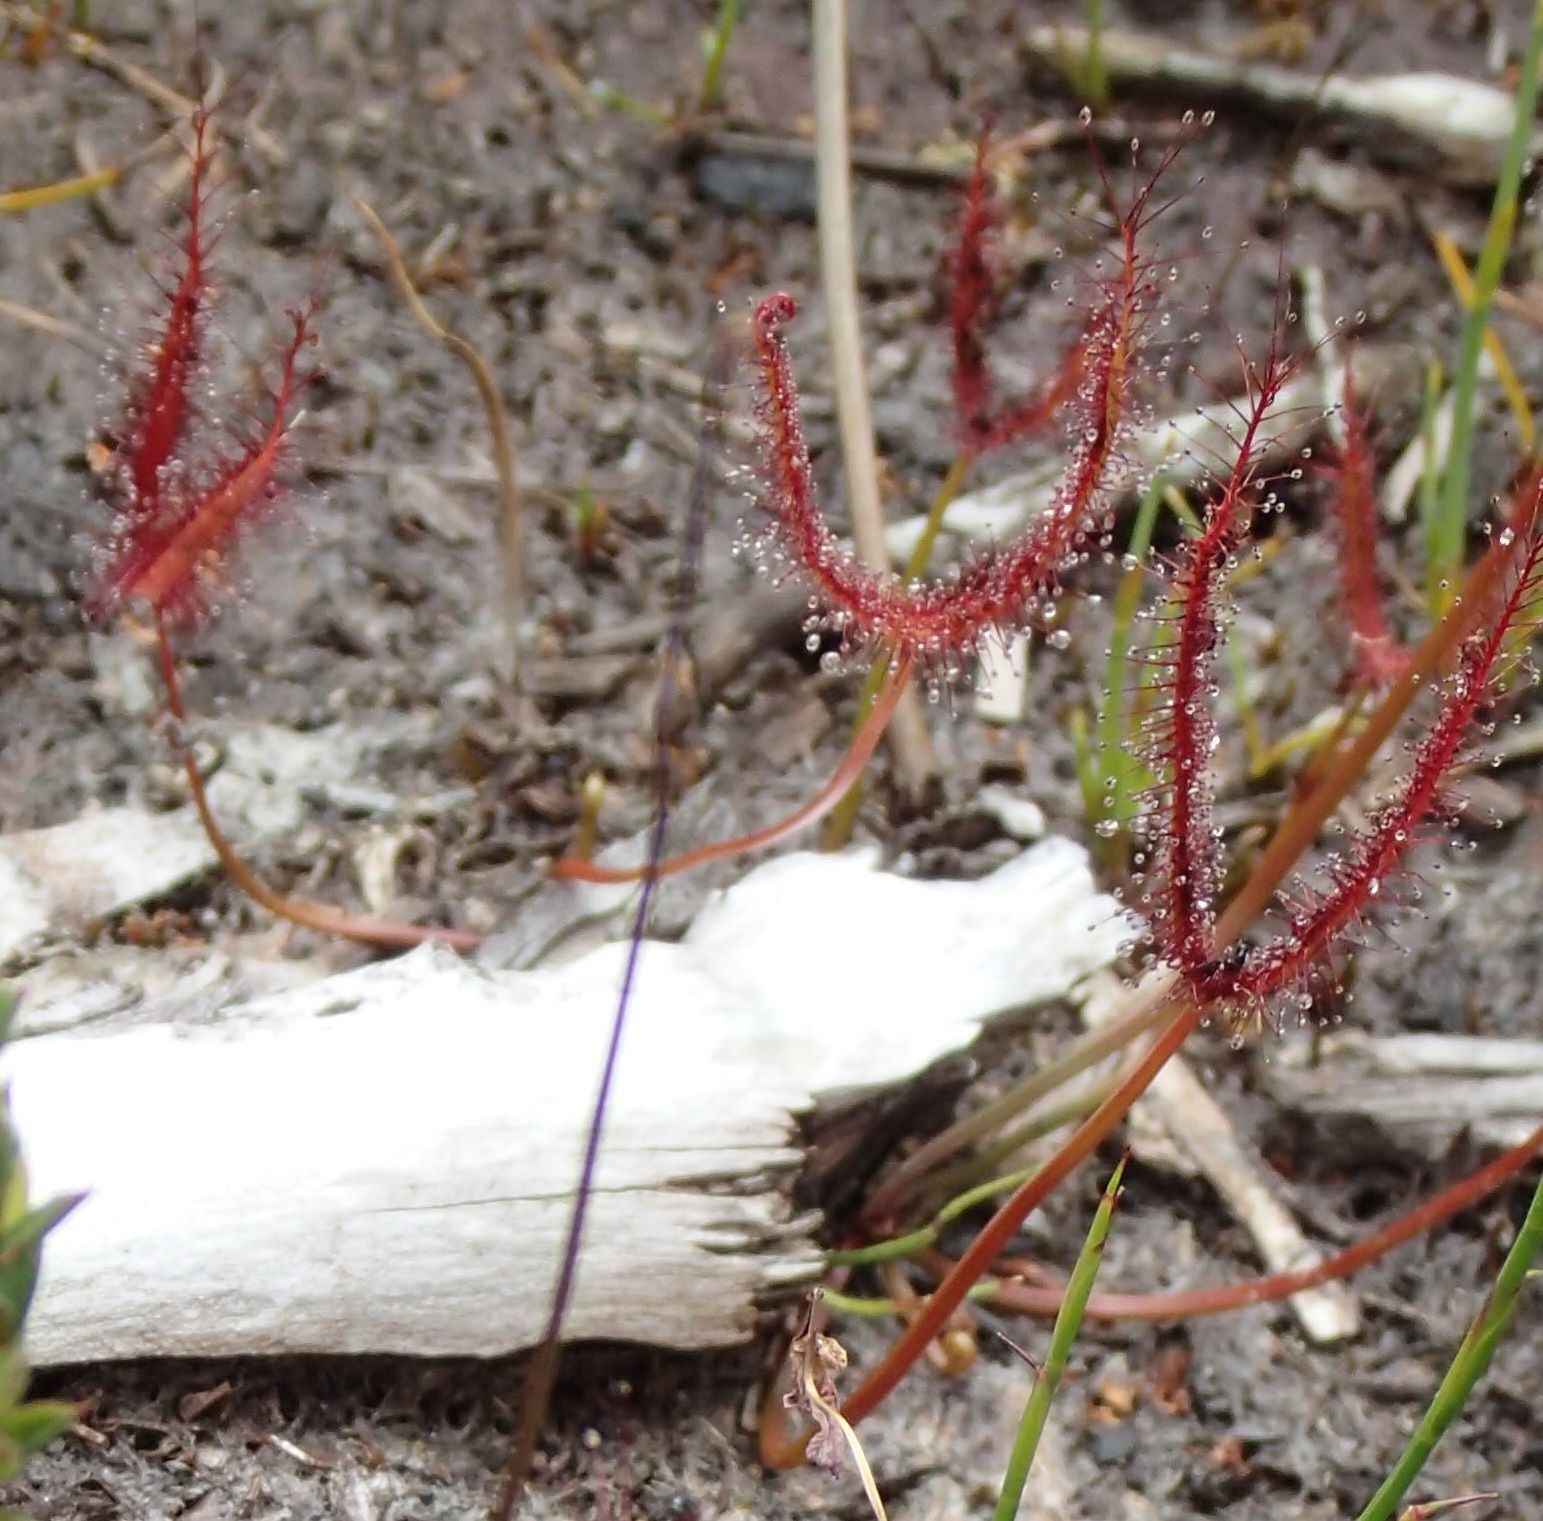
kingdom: Plantae
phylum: Tracheophyta
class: Magnoliopsida
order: Caryophyllales
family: Droseraceae
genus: Drosera
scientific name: Drosera binata
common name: Forked sundew
